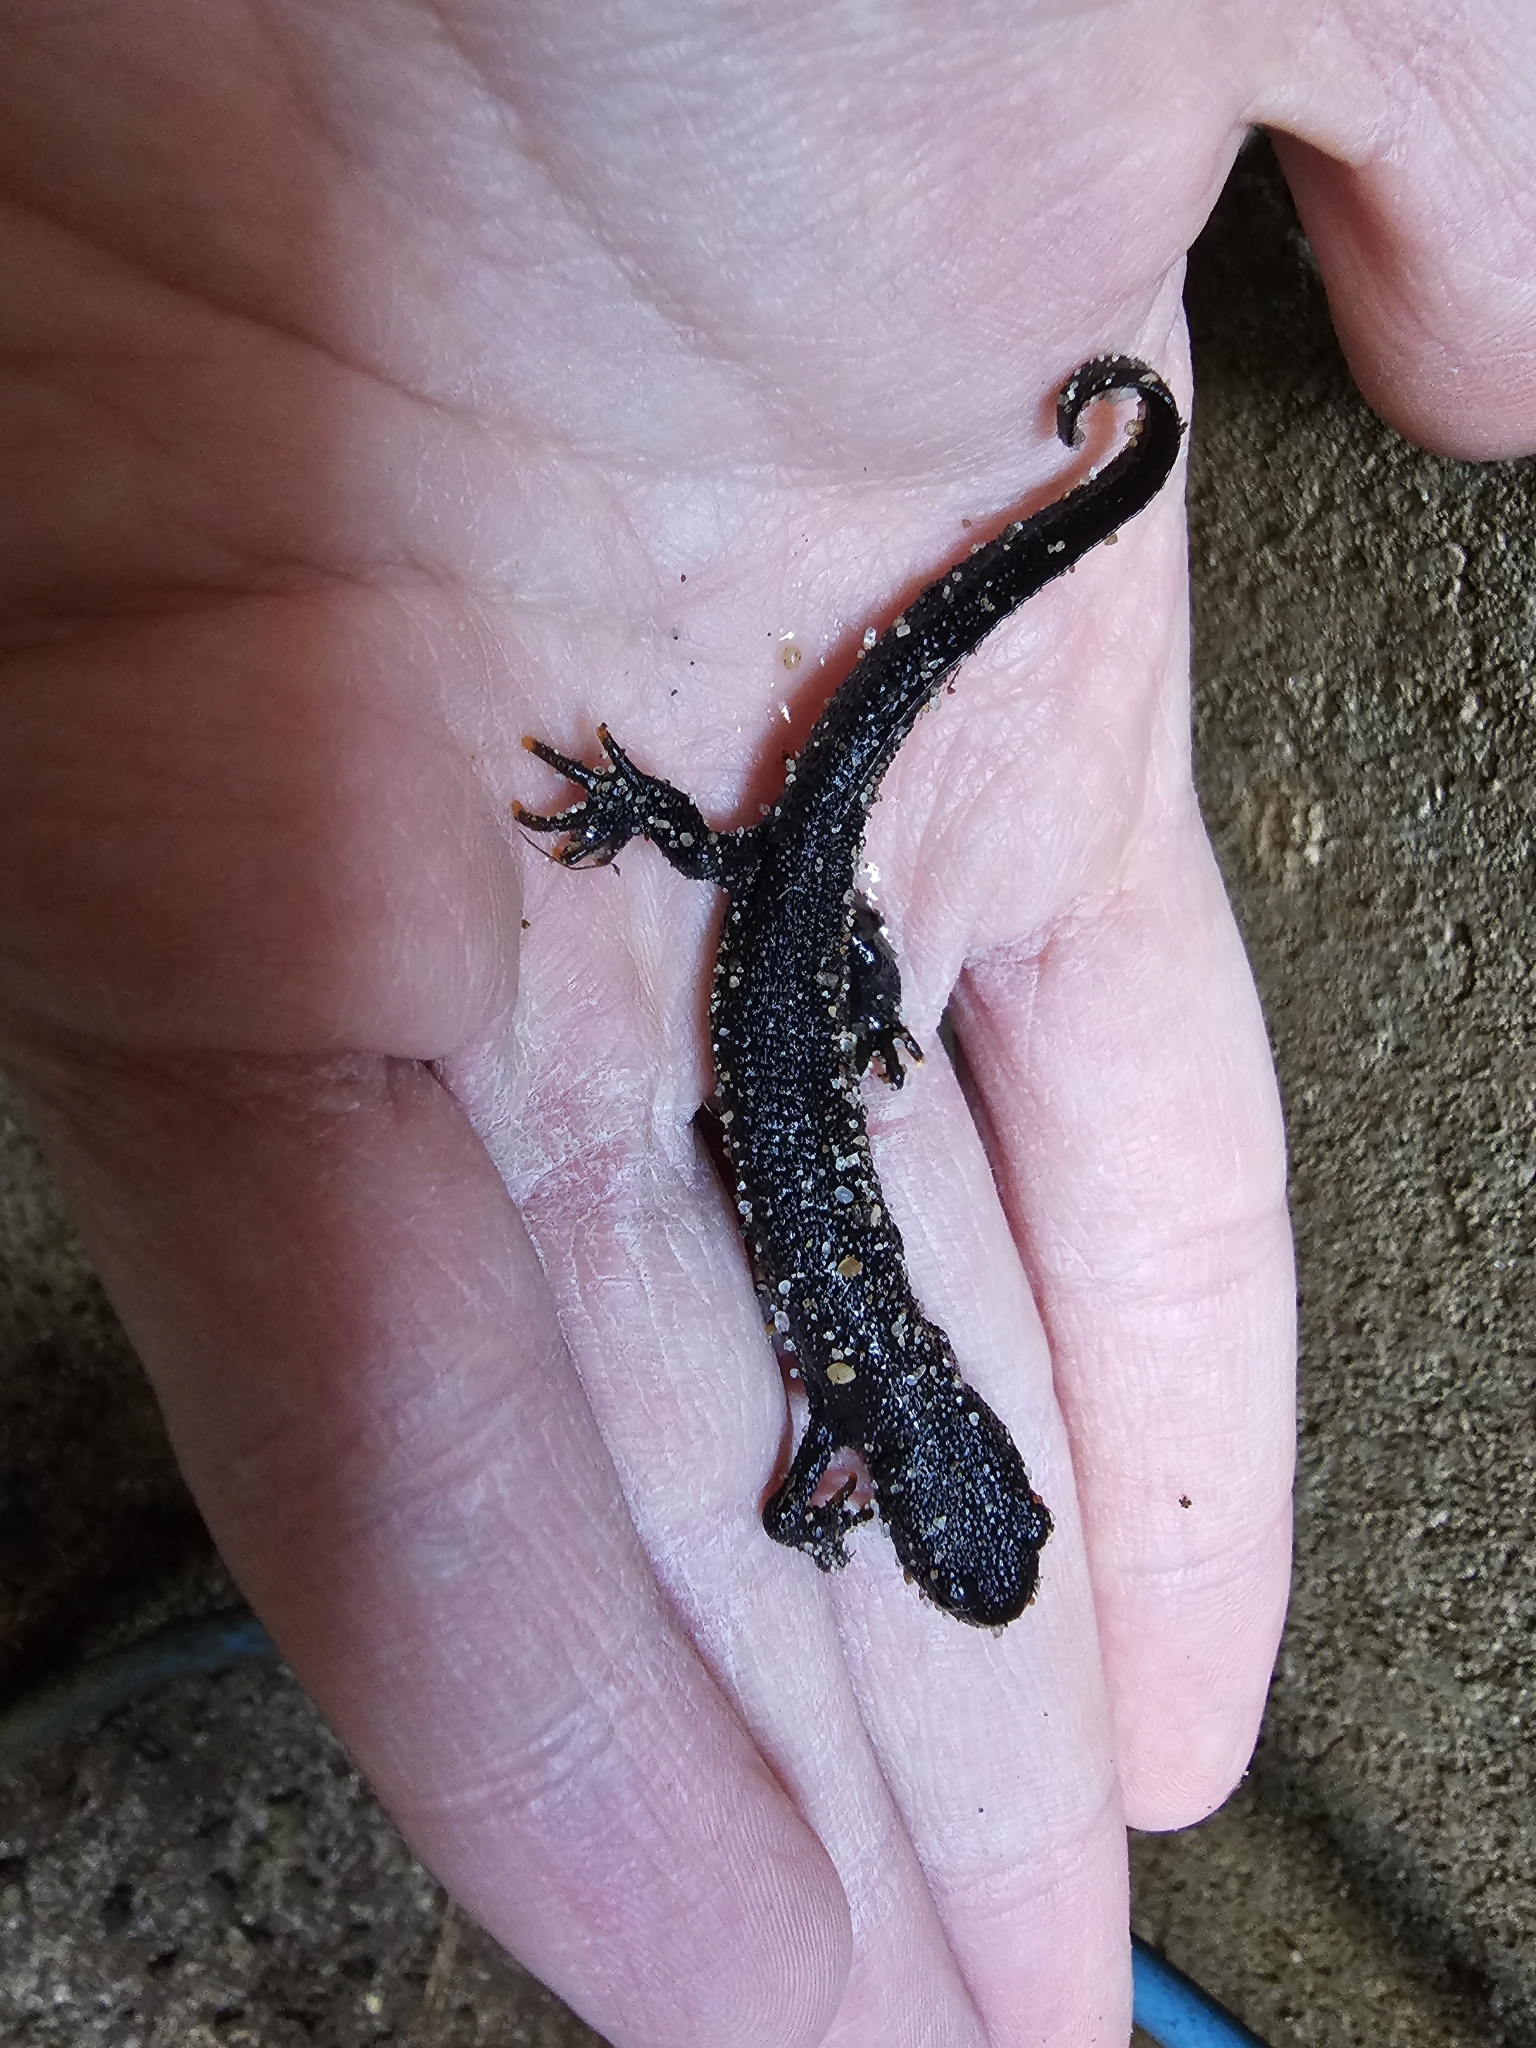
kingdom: Animalia
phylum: Chordata
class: Amphibia
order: Caudata
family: Salamandridae
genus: Triturus
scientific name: Triturus cristatus
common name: Crested newt
